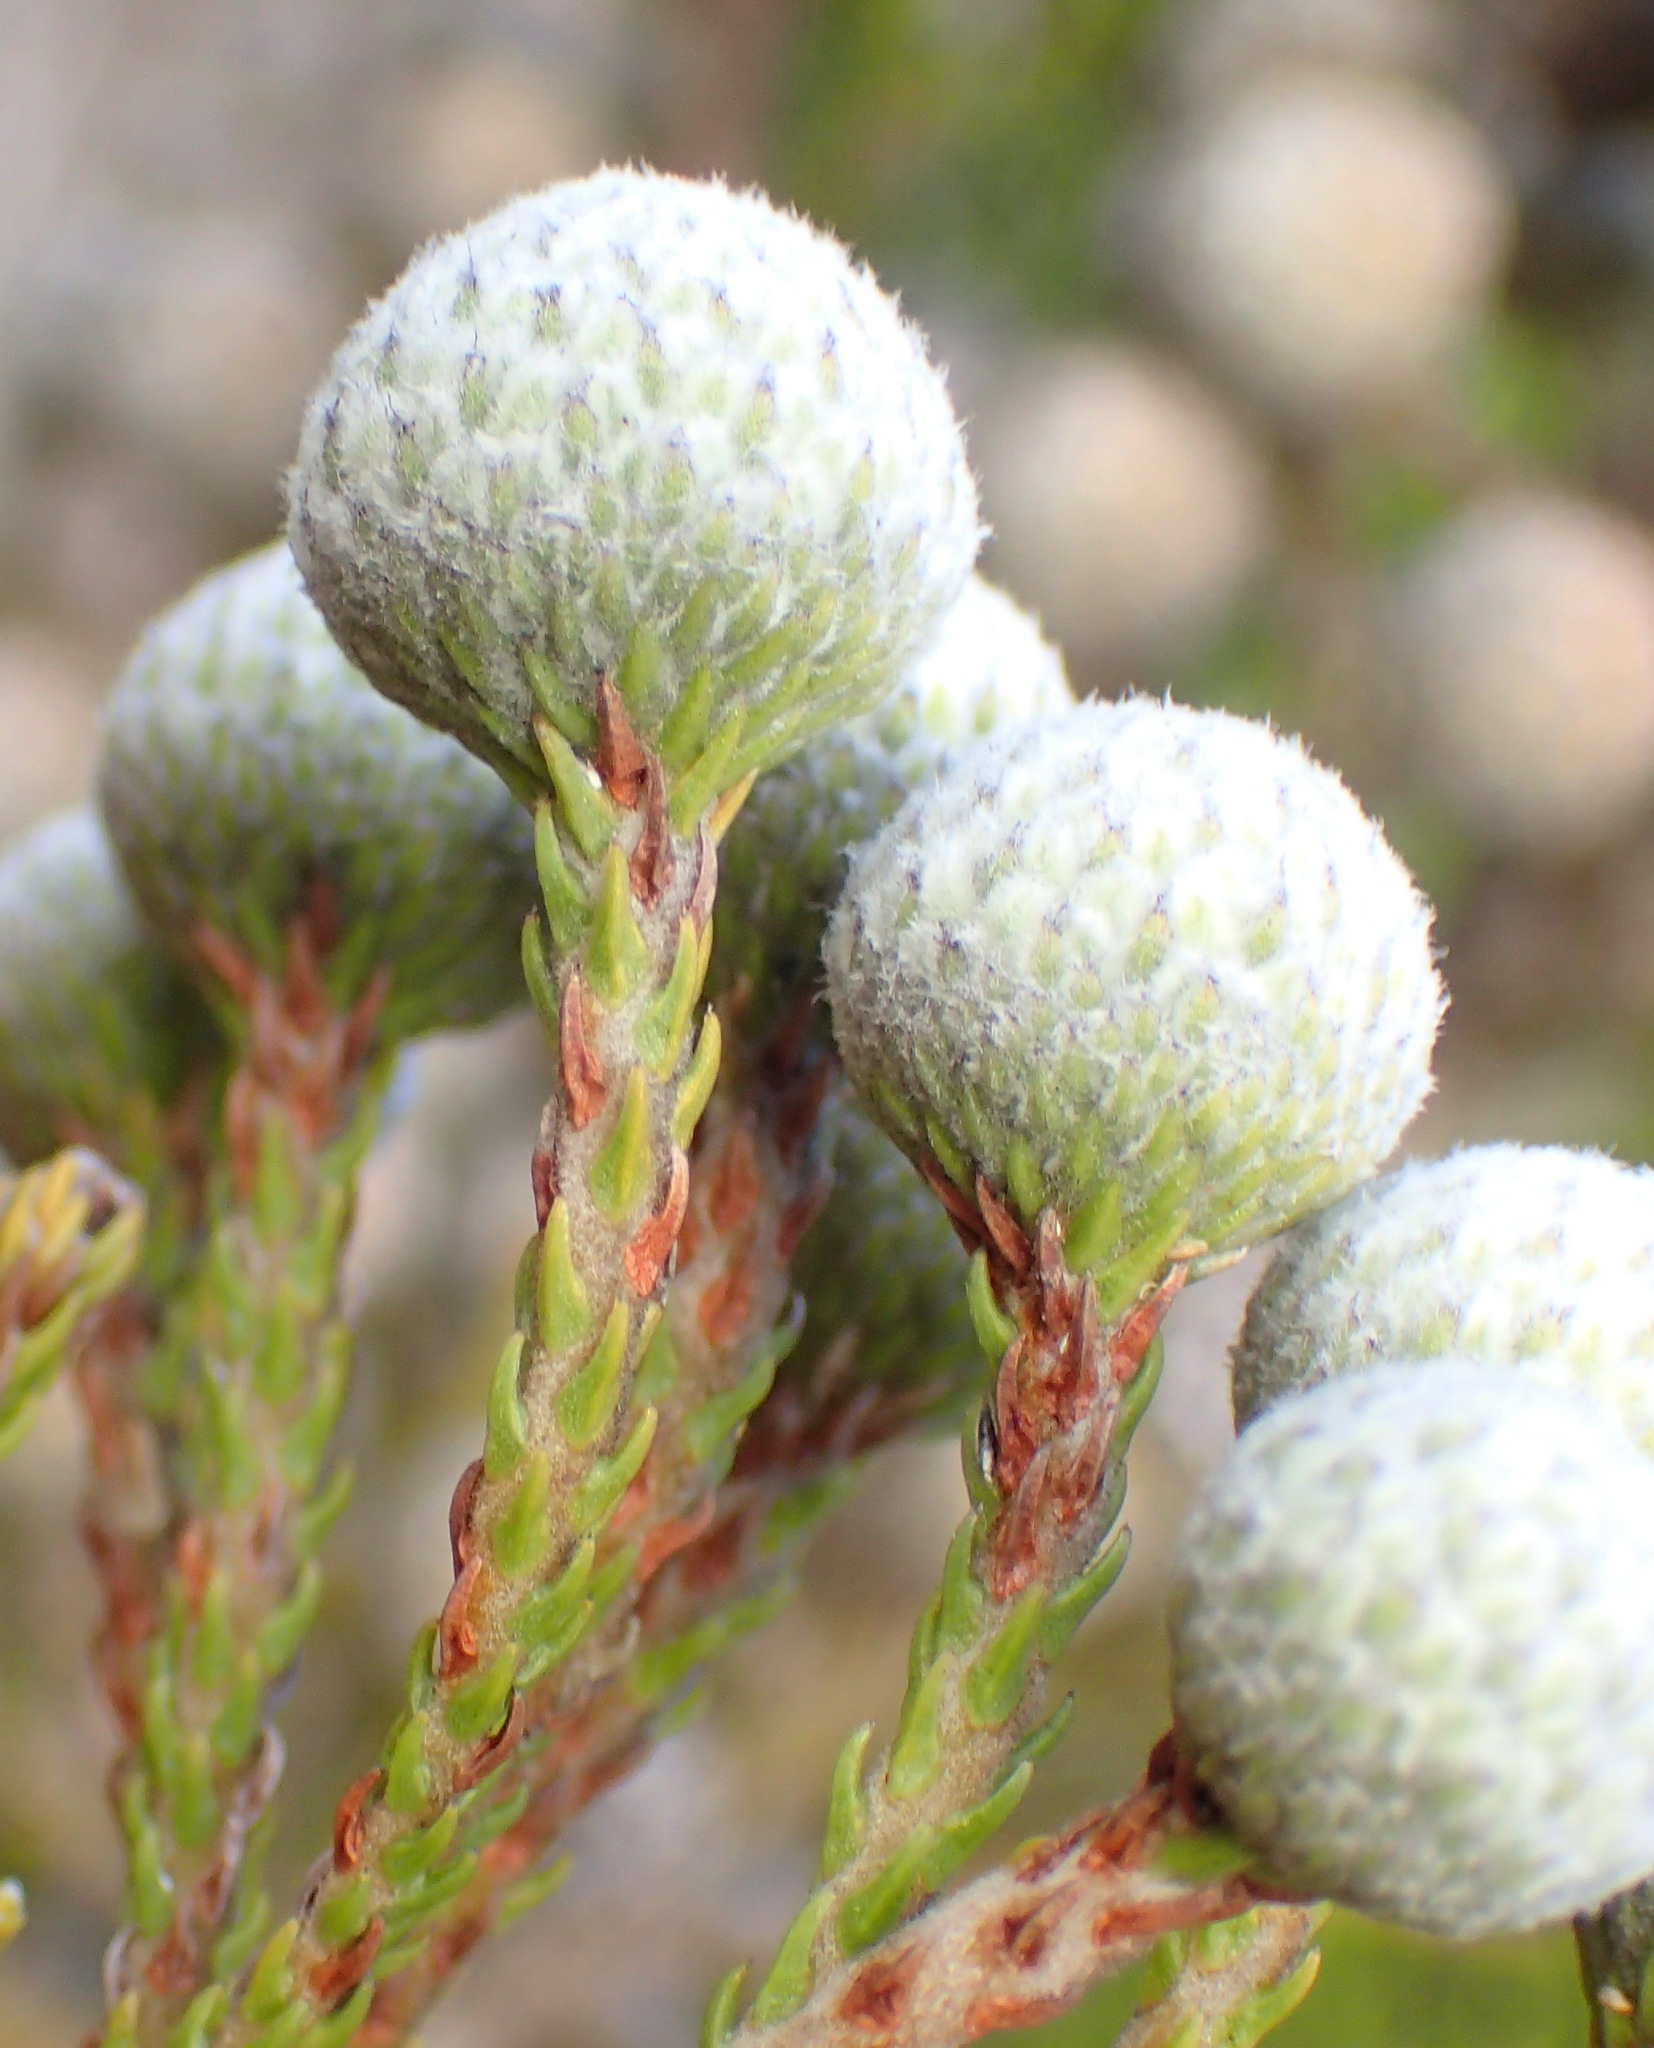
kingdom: Plantae
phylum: Tracheophyta
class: Magnoliopsida
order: Bruniales
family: Bruniaceae
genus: Brunia
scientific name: Brunia noduliflora
